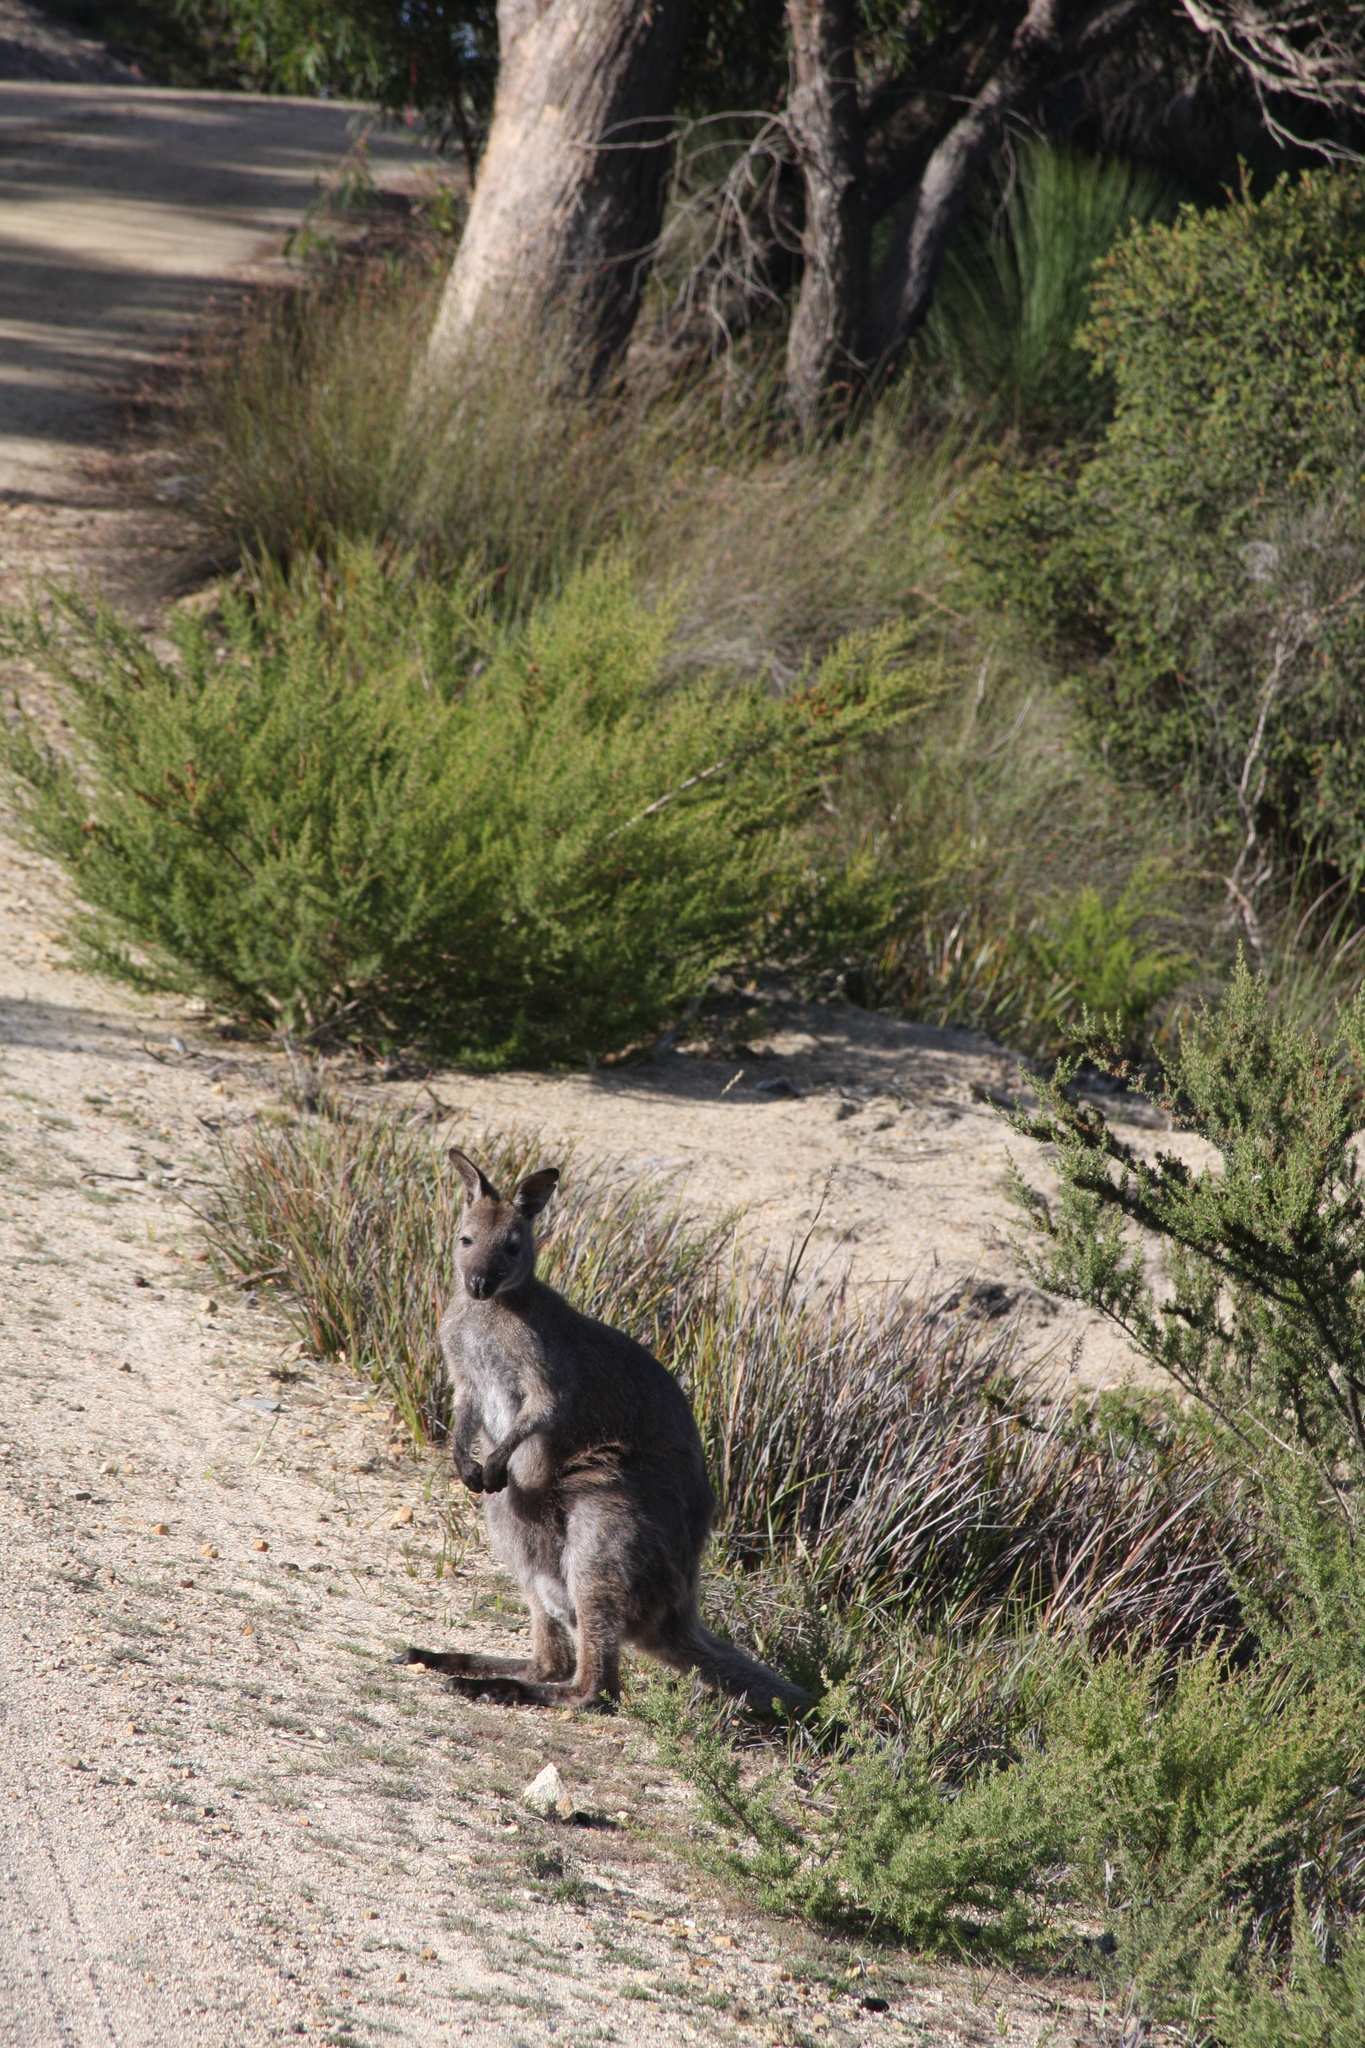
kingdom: Animalia
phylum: Chordata
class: Mammalia
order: Diprotodontia
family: Macropodidae
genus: Notamacropus
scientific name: Notamacropus rufogriseus
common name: Red-necked wallaby
